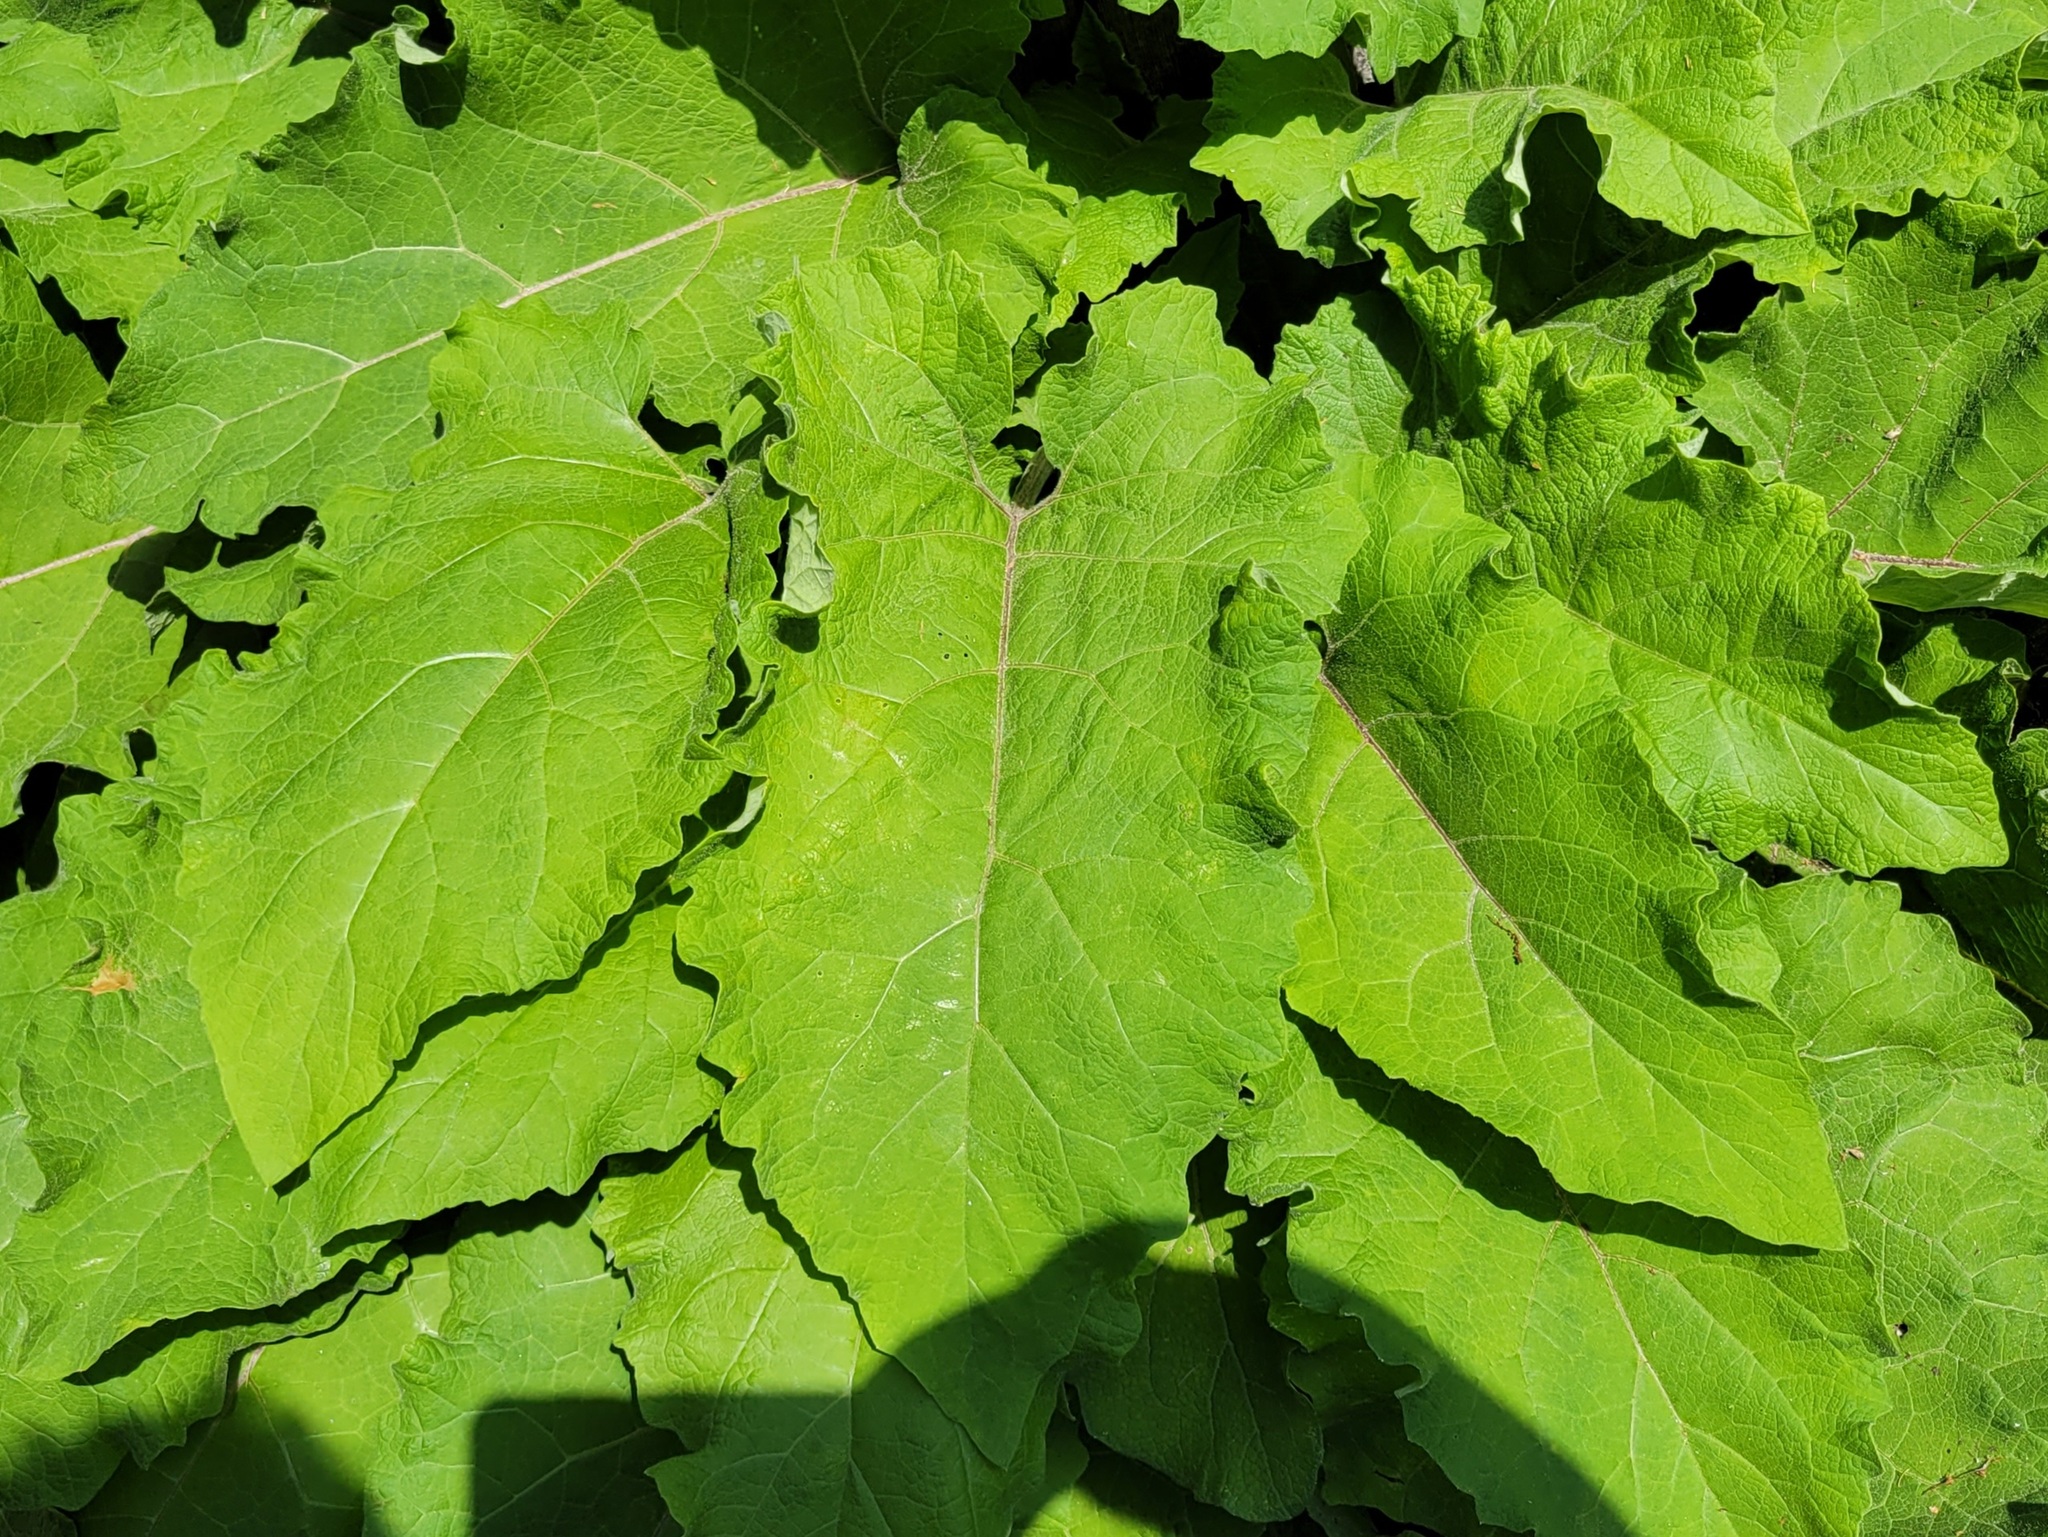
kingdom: Plantae
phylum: Tracheophyta
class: Magnoliopsida
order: Asterales
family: Asteraceae
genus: Arctium
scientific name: Arctium
